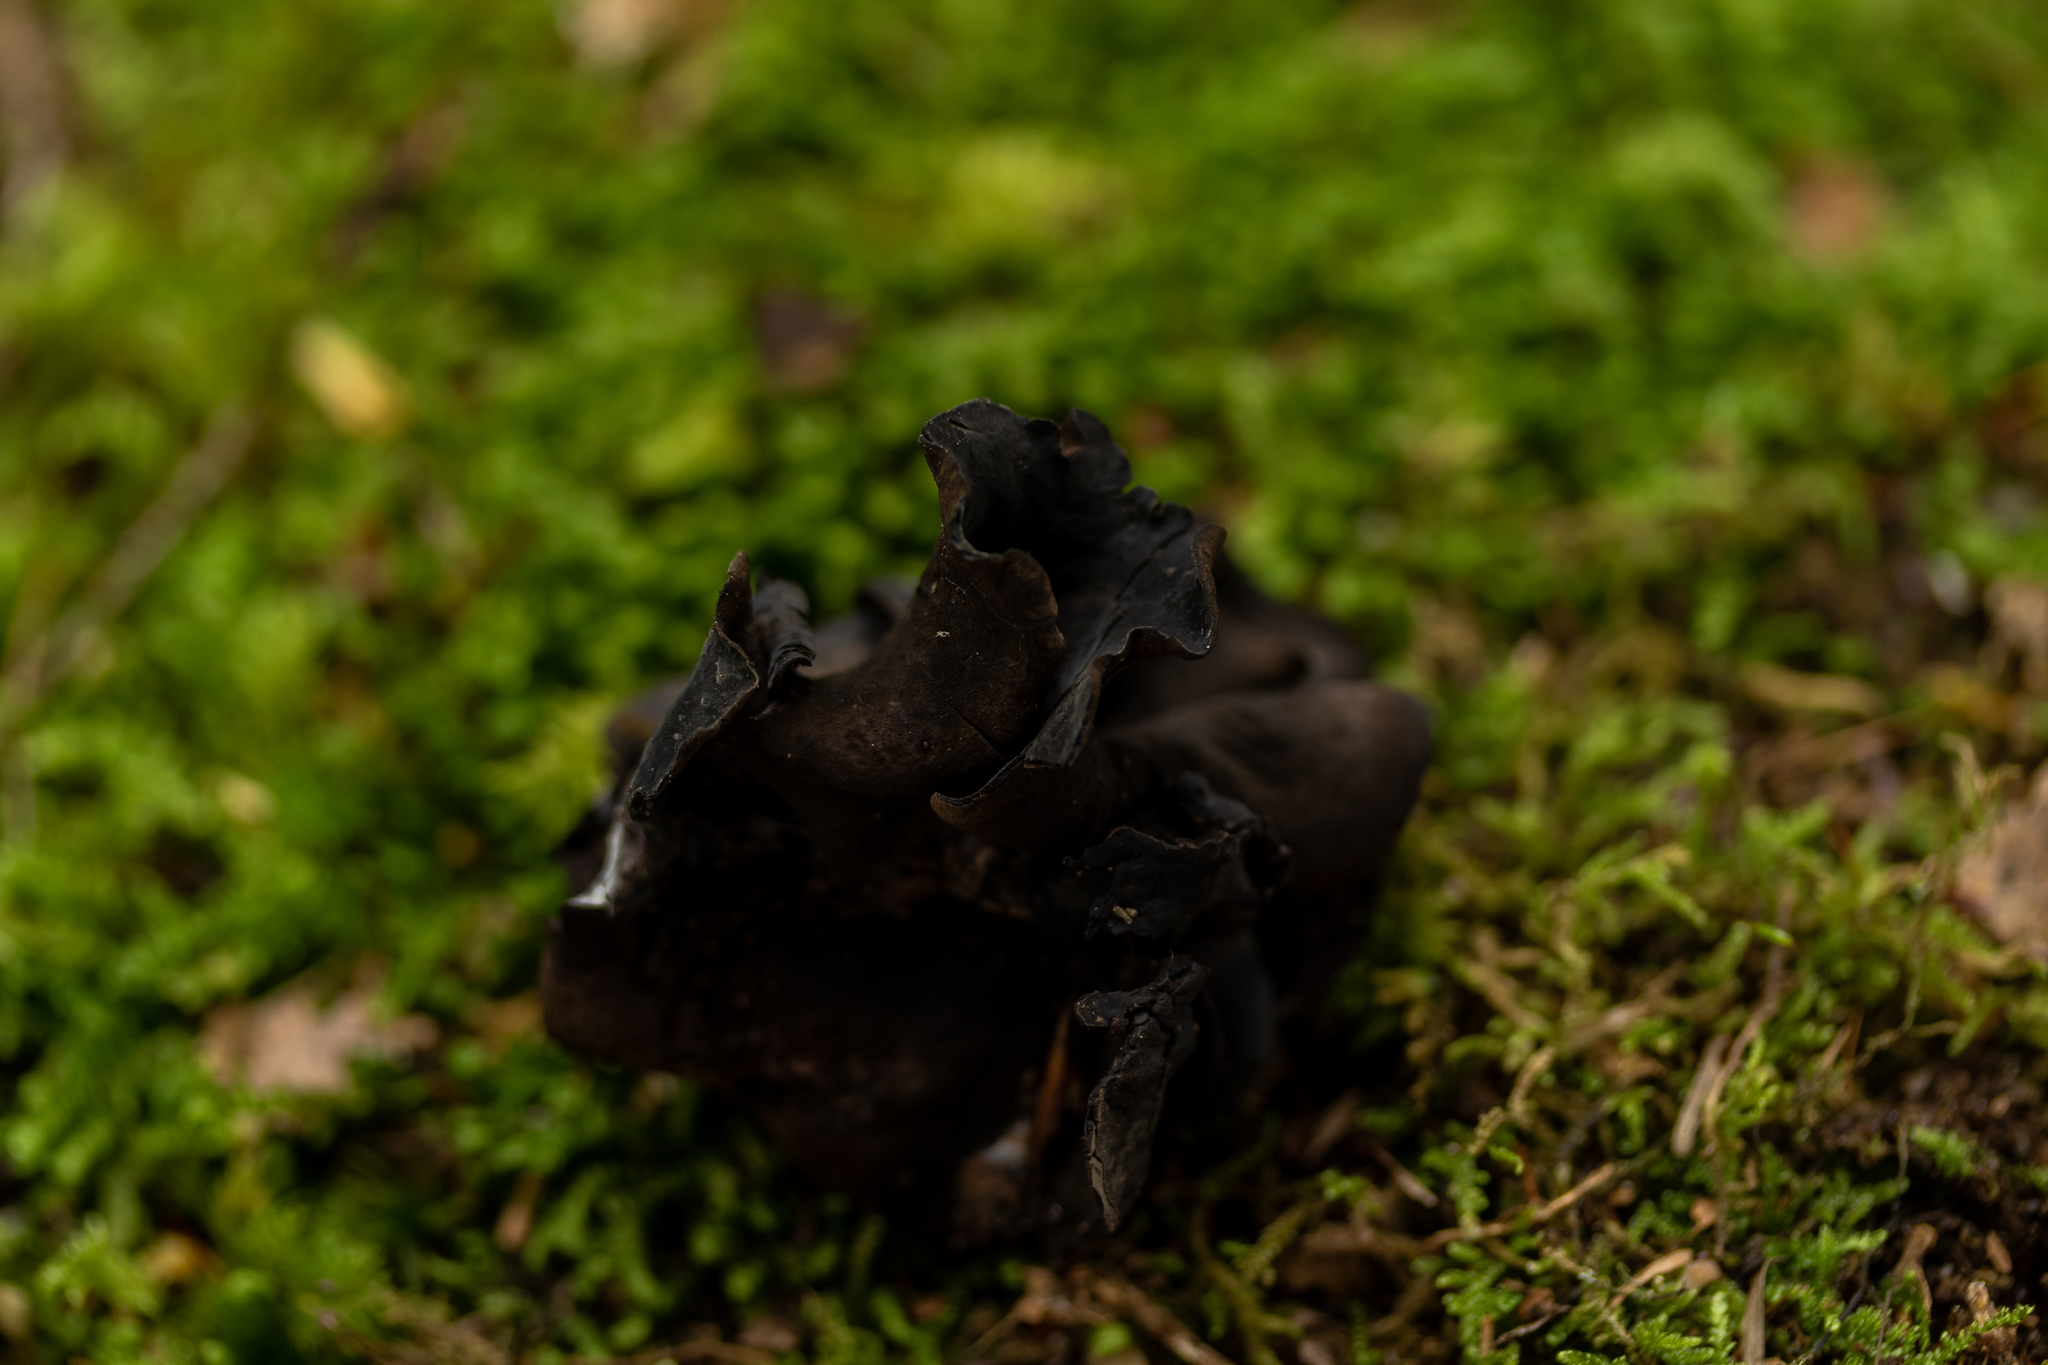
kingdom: Fungi
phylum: Ascomycota
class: Leotiomycetes
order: Helotiales
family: Cordieritidaceae
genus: Diplocarpa
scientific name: Diplocarpa irregularis
